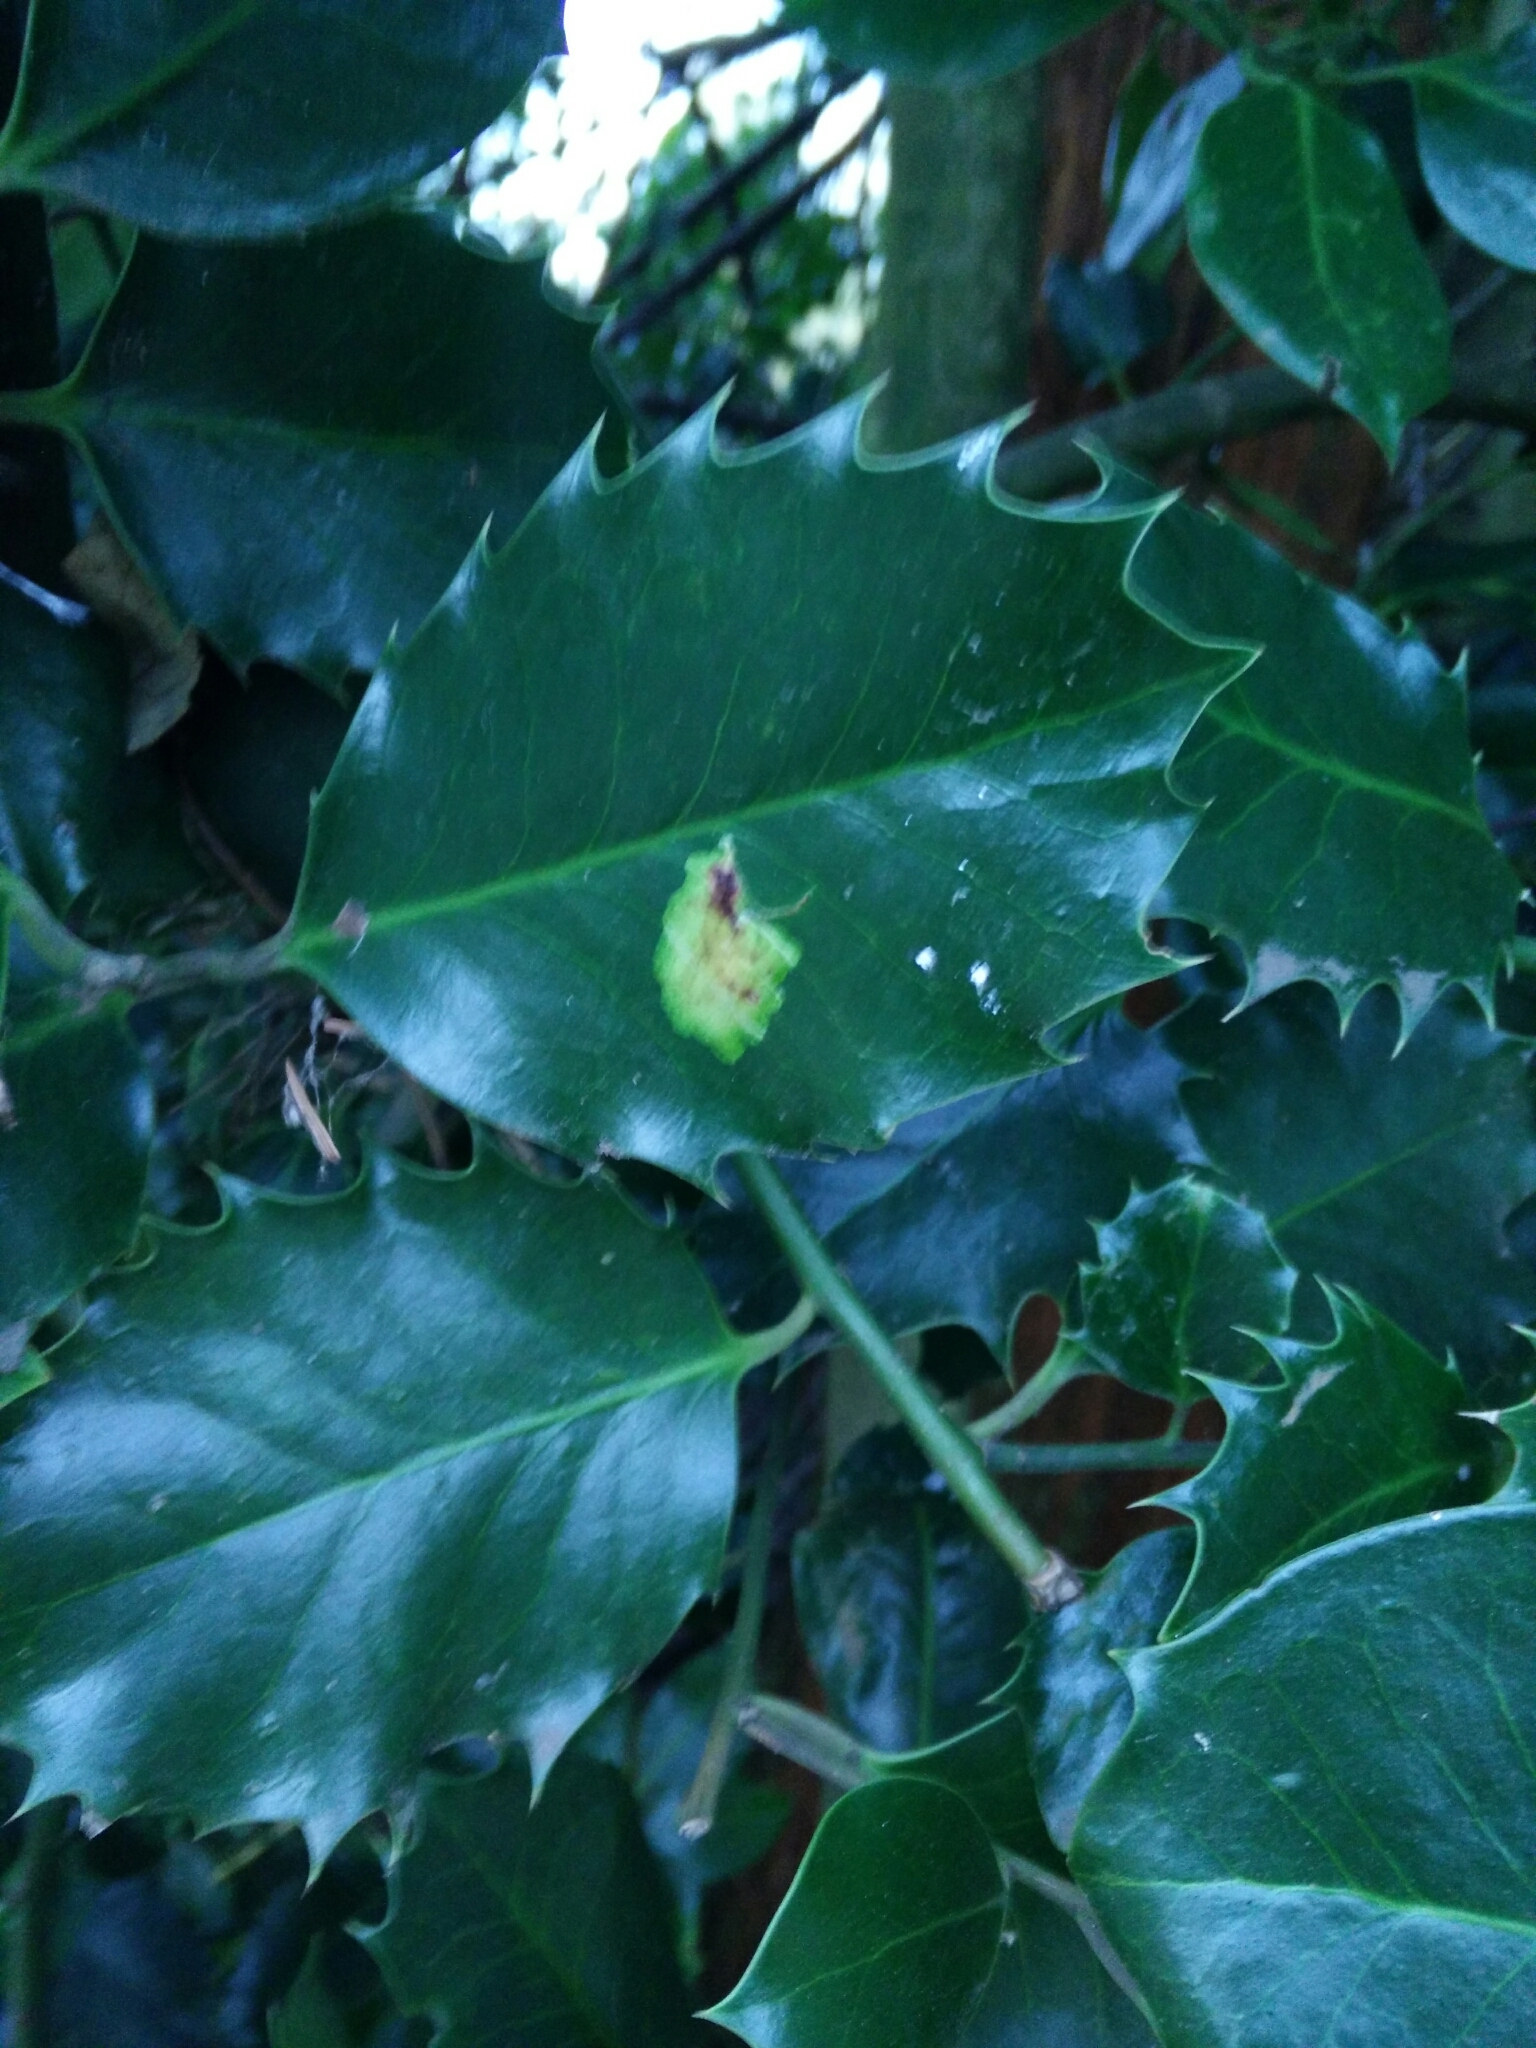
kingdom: Animalia
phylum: Arthropoda
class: Insecta
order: Diptera
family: Agromyzidae
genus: Phytomyza
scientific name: Phytomyza ilicis
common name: Holly leafminer
